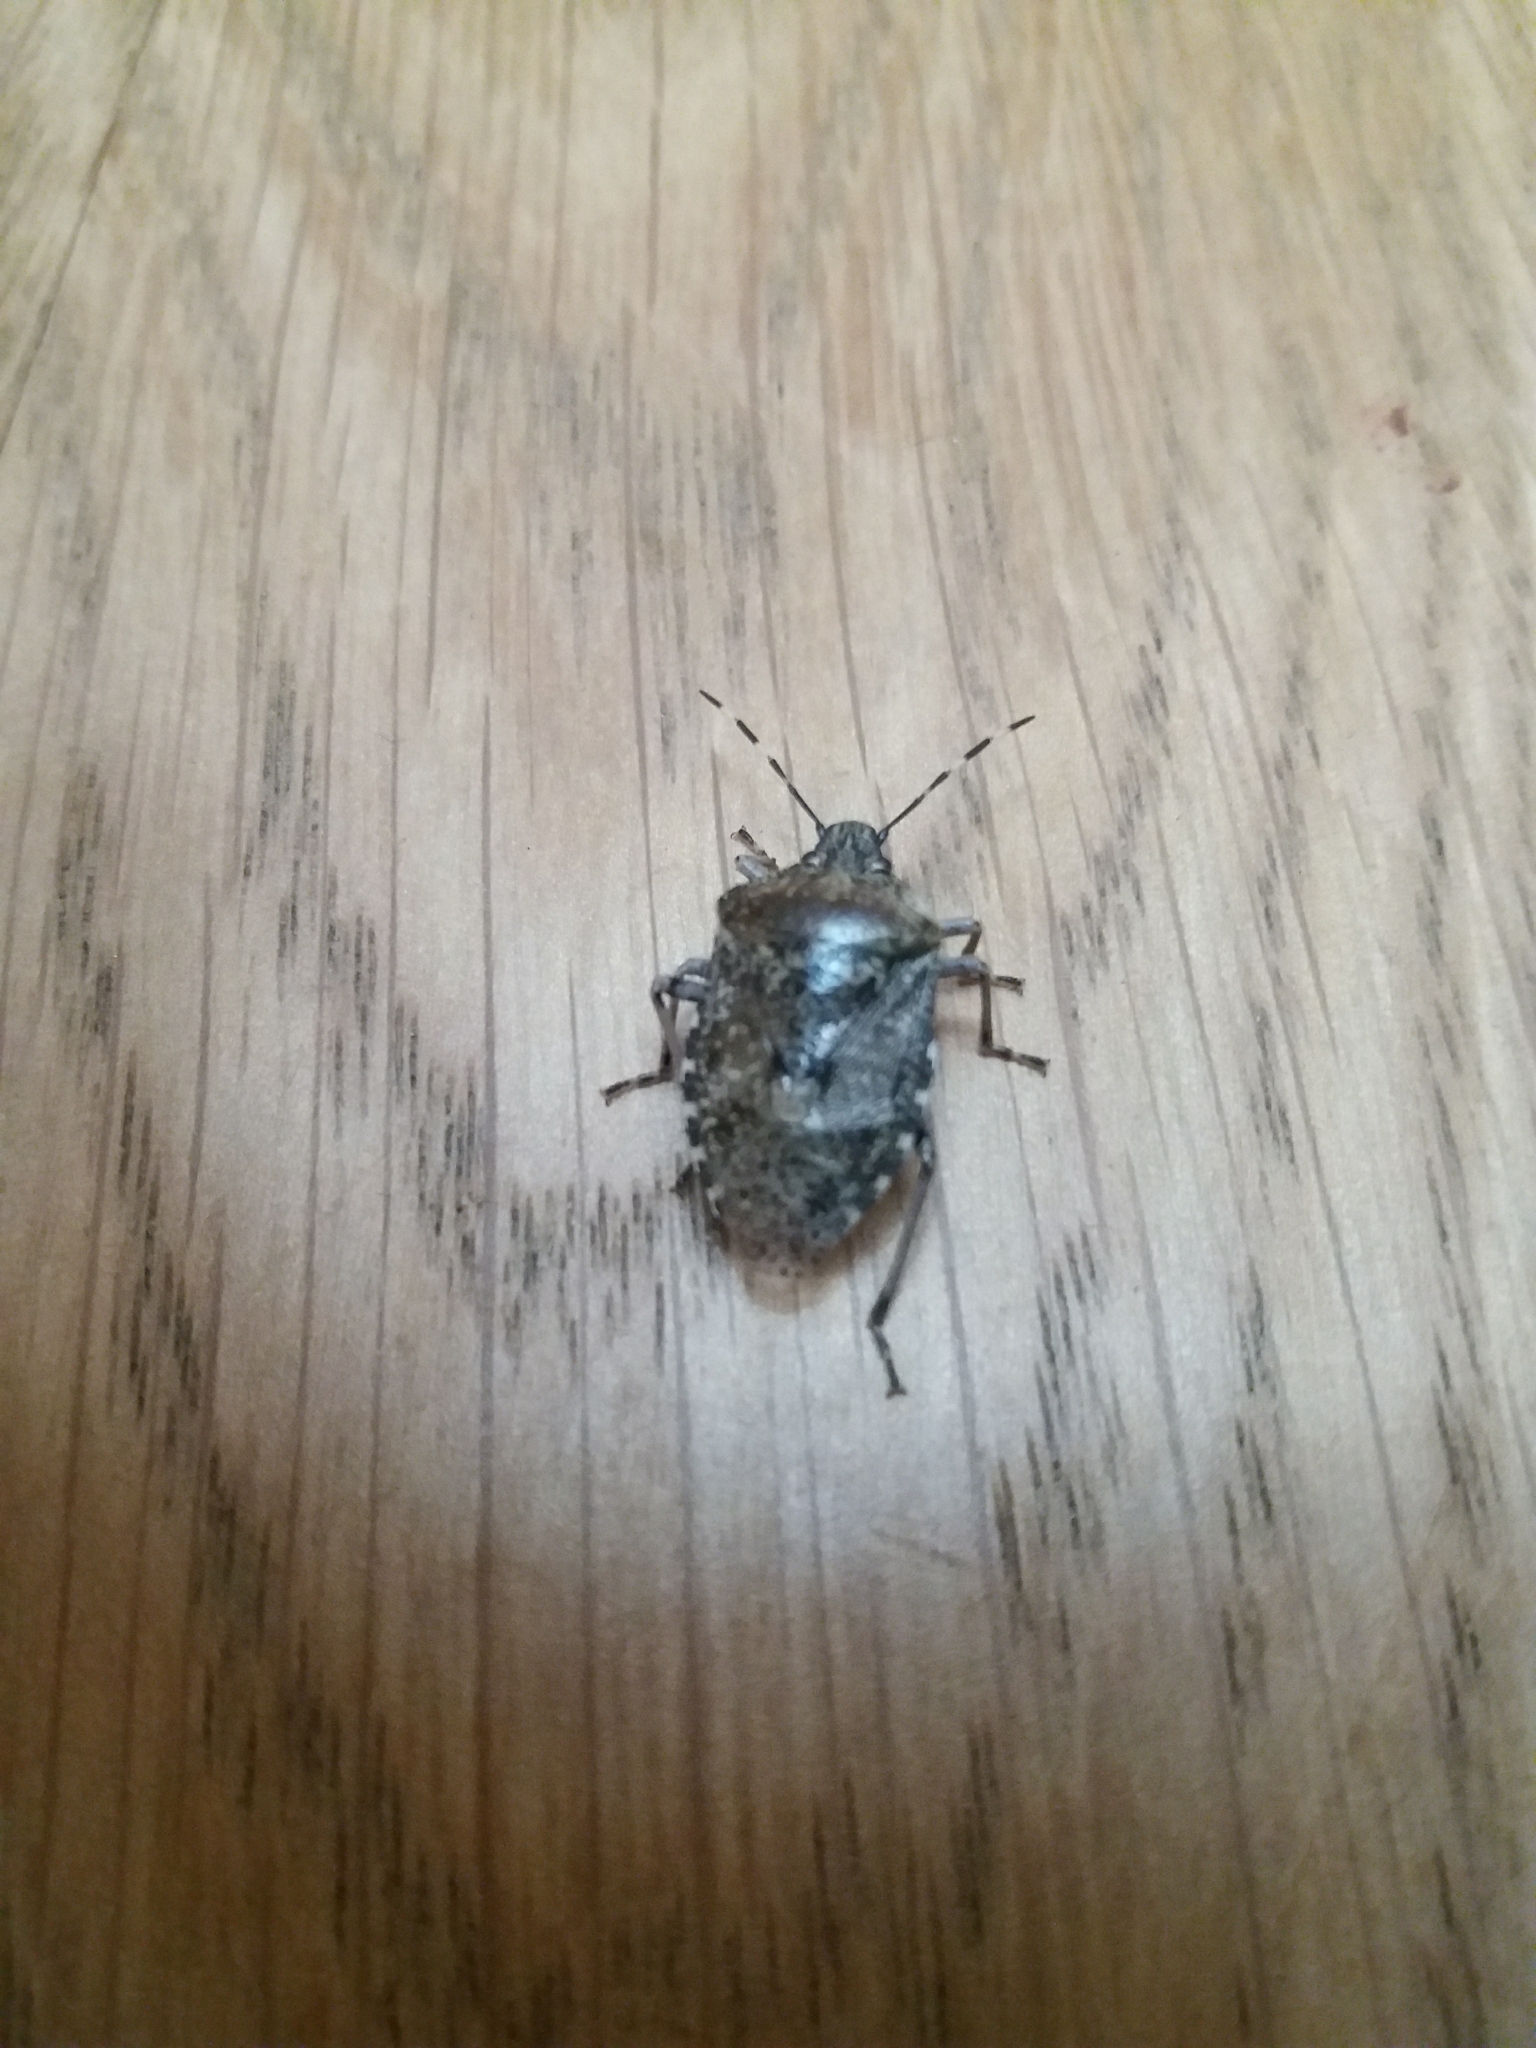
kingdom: Animalia
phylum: Arthropoda
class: Insecta
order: Hemiptera
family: Pentatomidae
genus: Rhaphigaster
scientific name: Rhaphigaster nebulosa
